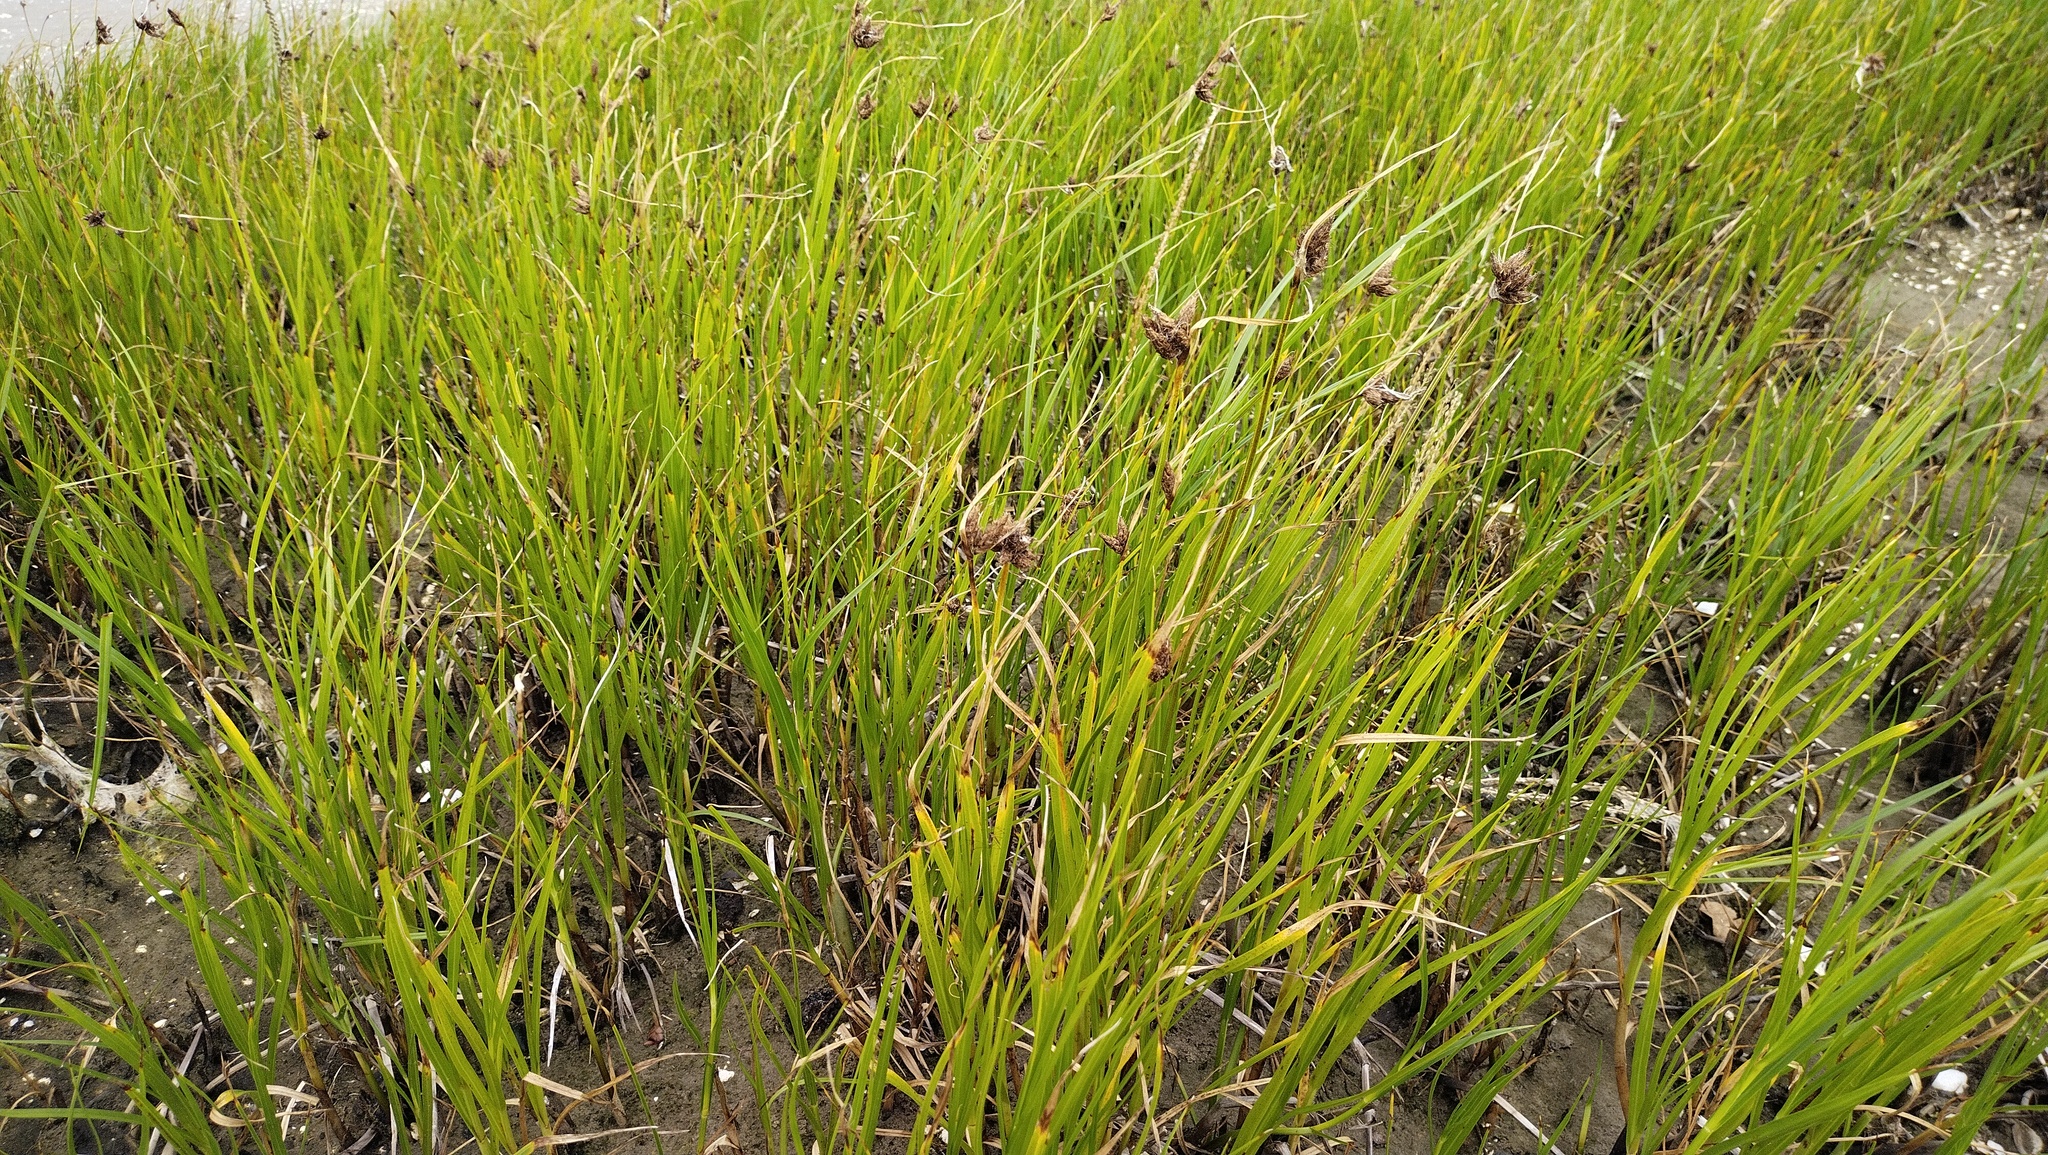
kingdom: Plantae
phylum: Tracheophyta
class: Liliopsida
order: Poales
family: Cyperaceae
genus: Bolboschoenus
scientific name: Bolboschoenus maritimus
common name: Sea club-rush
